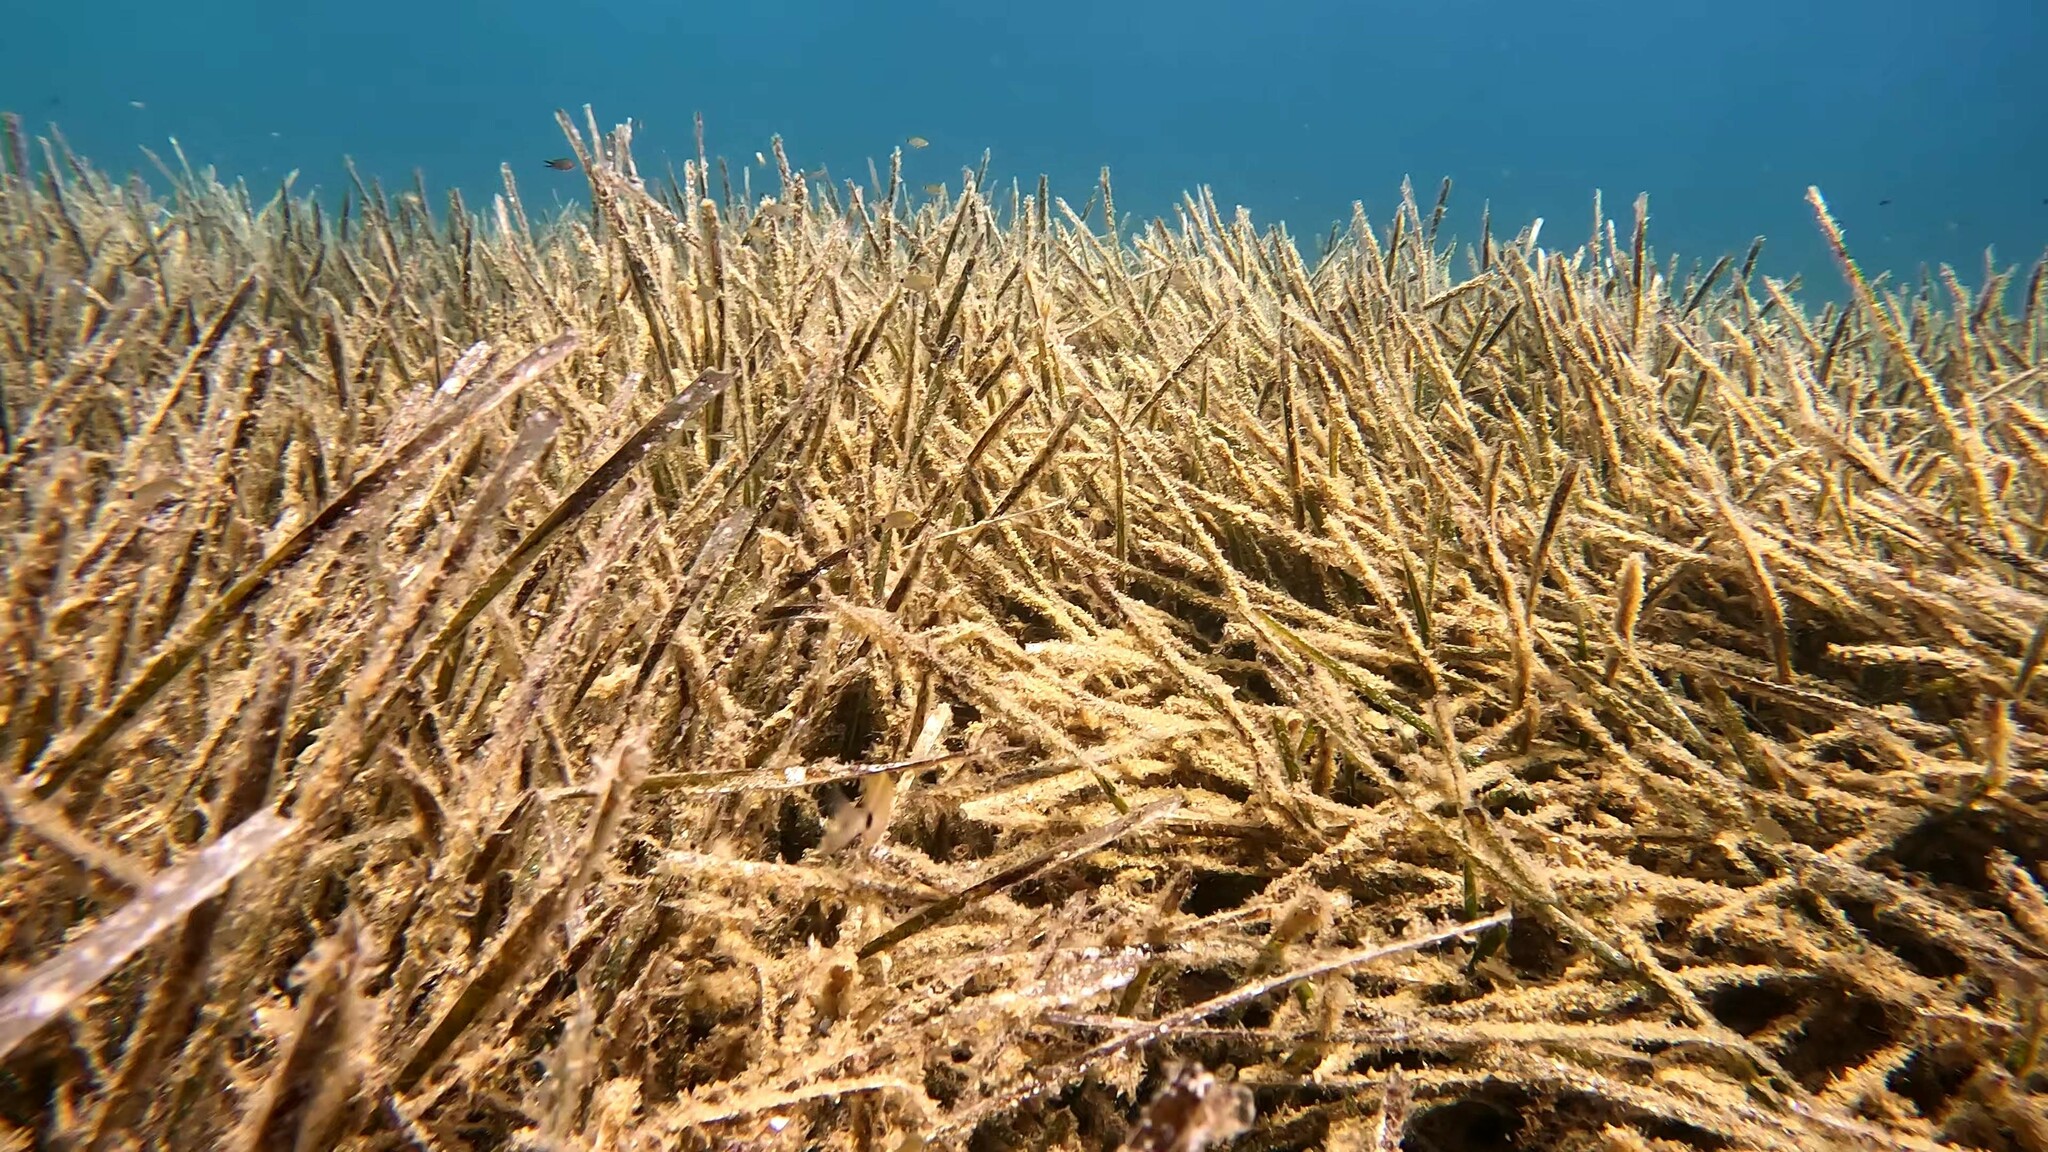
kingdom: Plantae
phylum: Tracheophyta
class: Liliopsida
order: Alismatales
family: Posidoniaceae
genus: Posidonia
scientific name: Posidonia oceanica
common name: Mediterranean tapeweed
